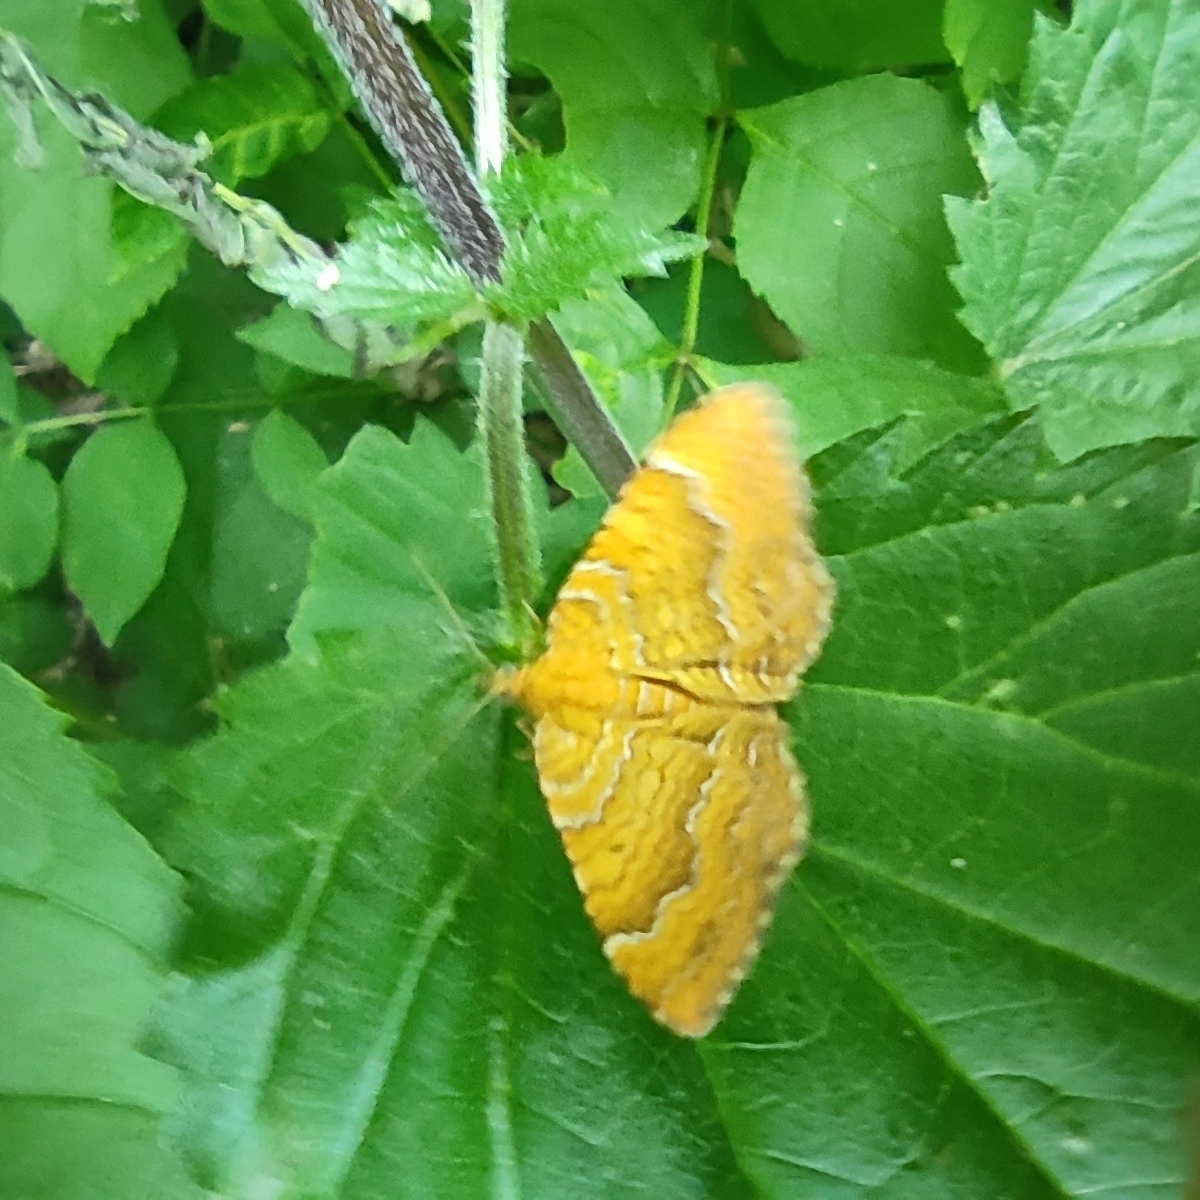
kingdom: Animalia
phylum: Arthropoda
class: Insecta
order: Lepidoptera
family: Geometridae
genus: Camptogramma
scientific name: Camptogramma bilineata
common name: Yellow shell
